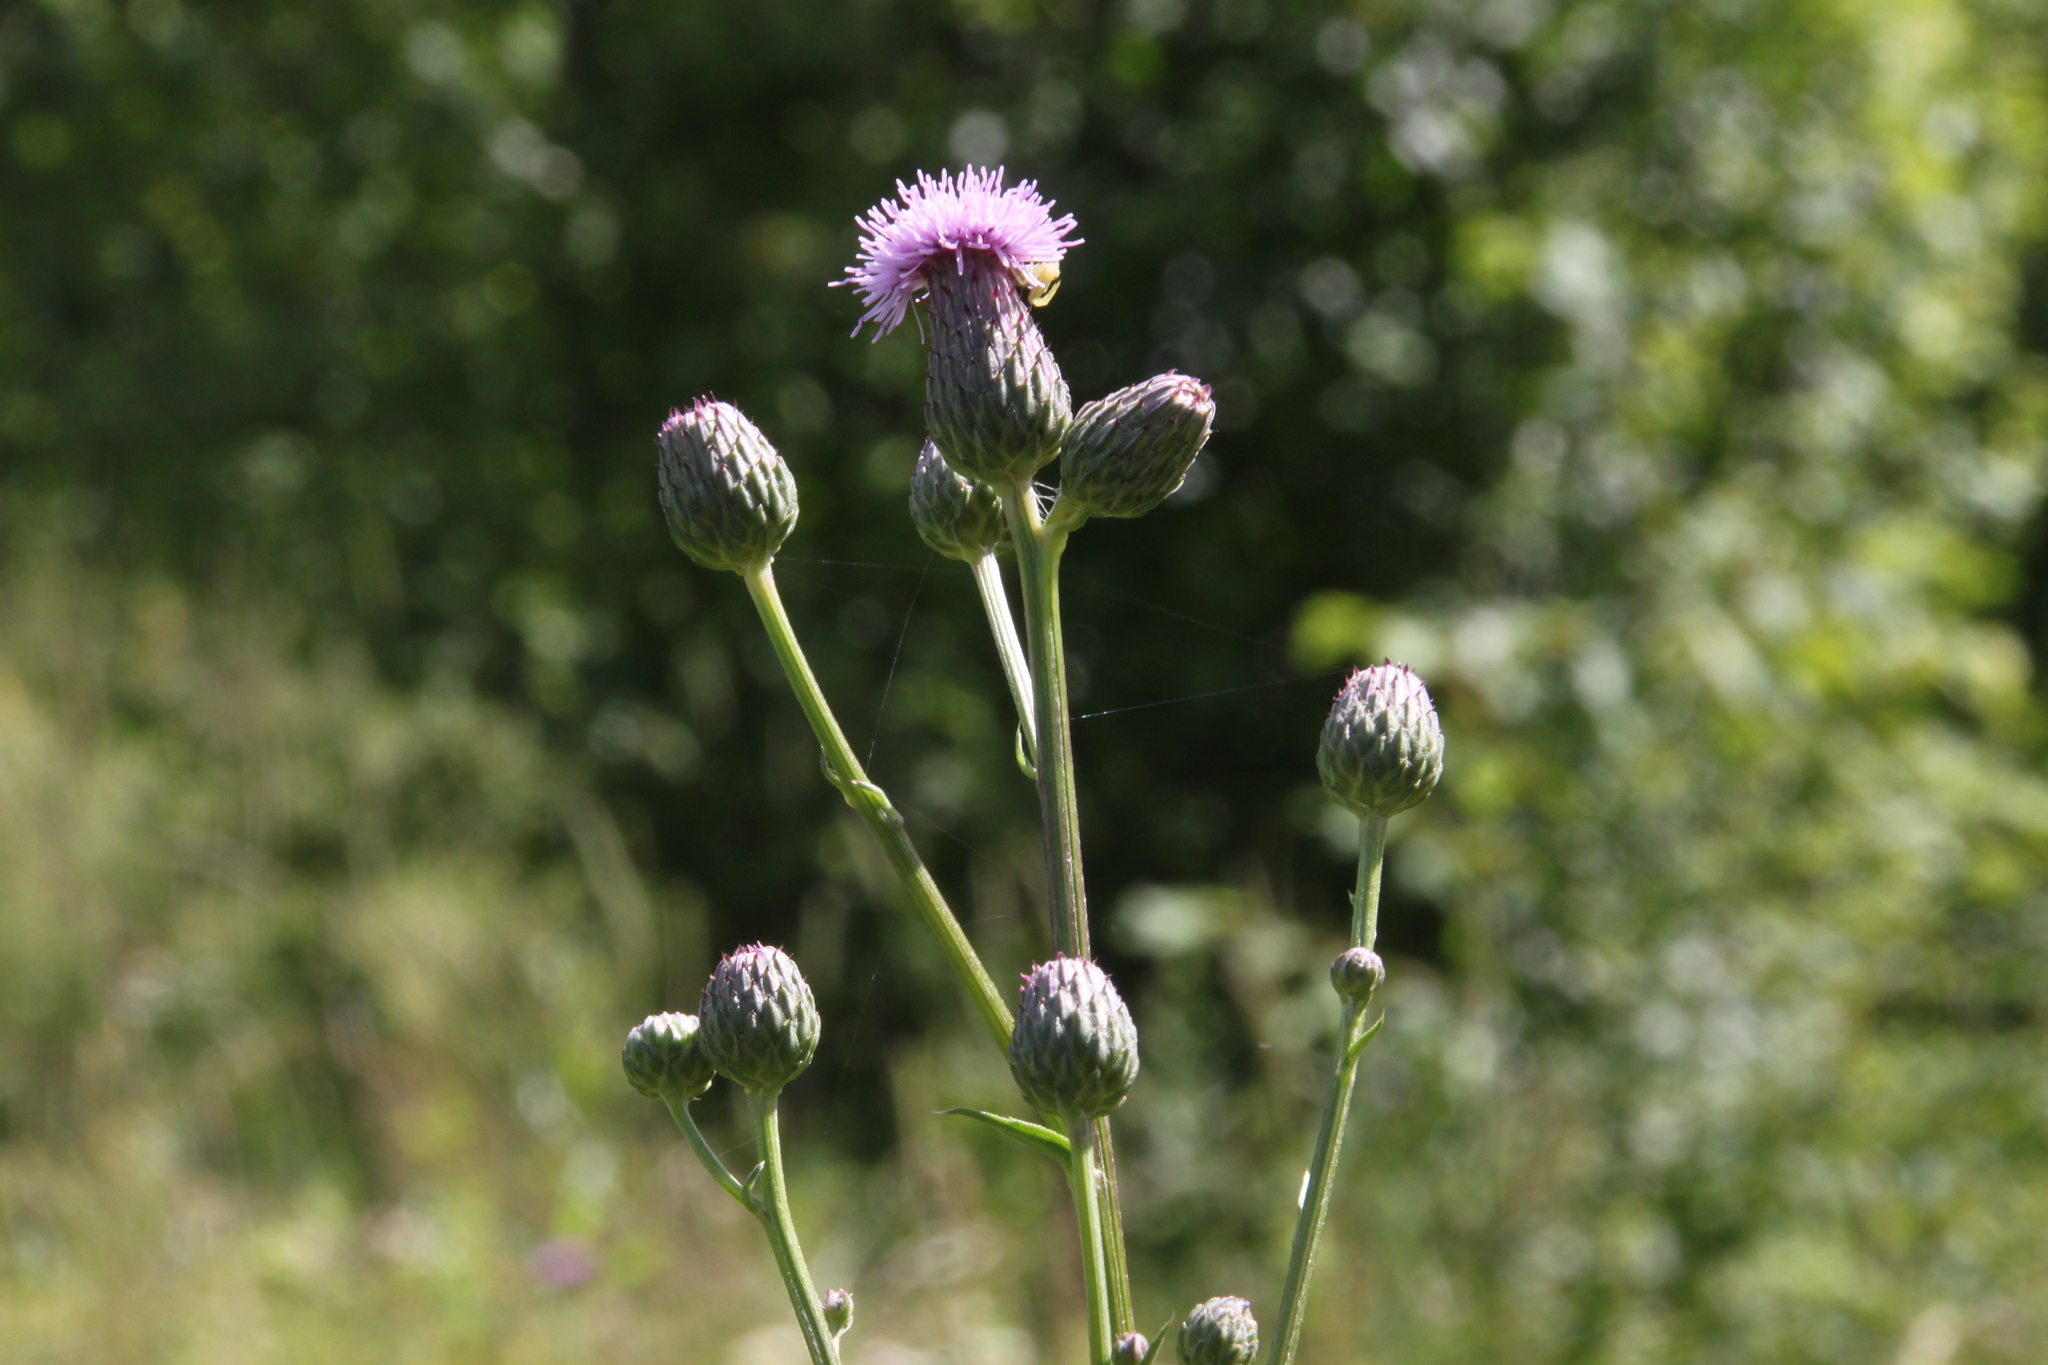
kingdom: Plantae
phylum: Tracheophyta
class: Magnoliopsida
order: Asterales
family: Asteraceae
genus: Cirsium
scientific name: Cirsium arvense
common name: Creeping thistle
